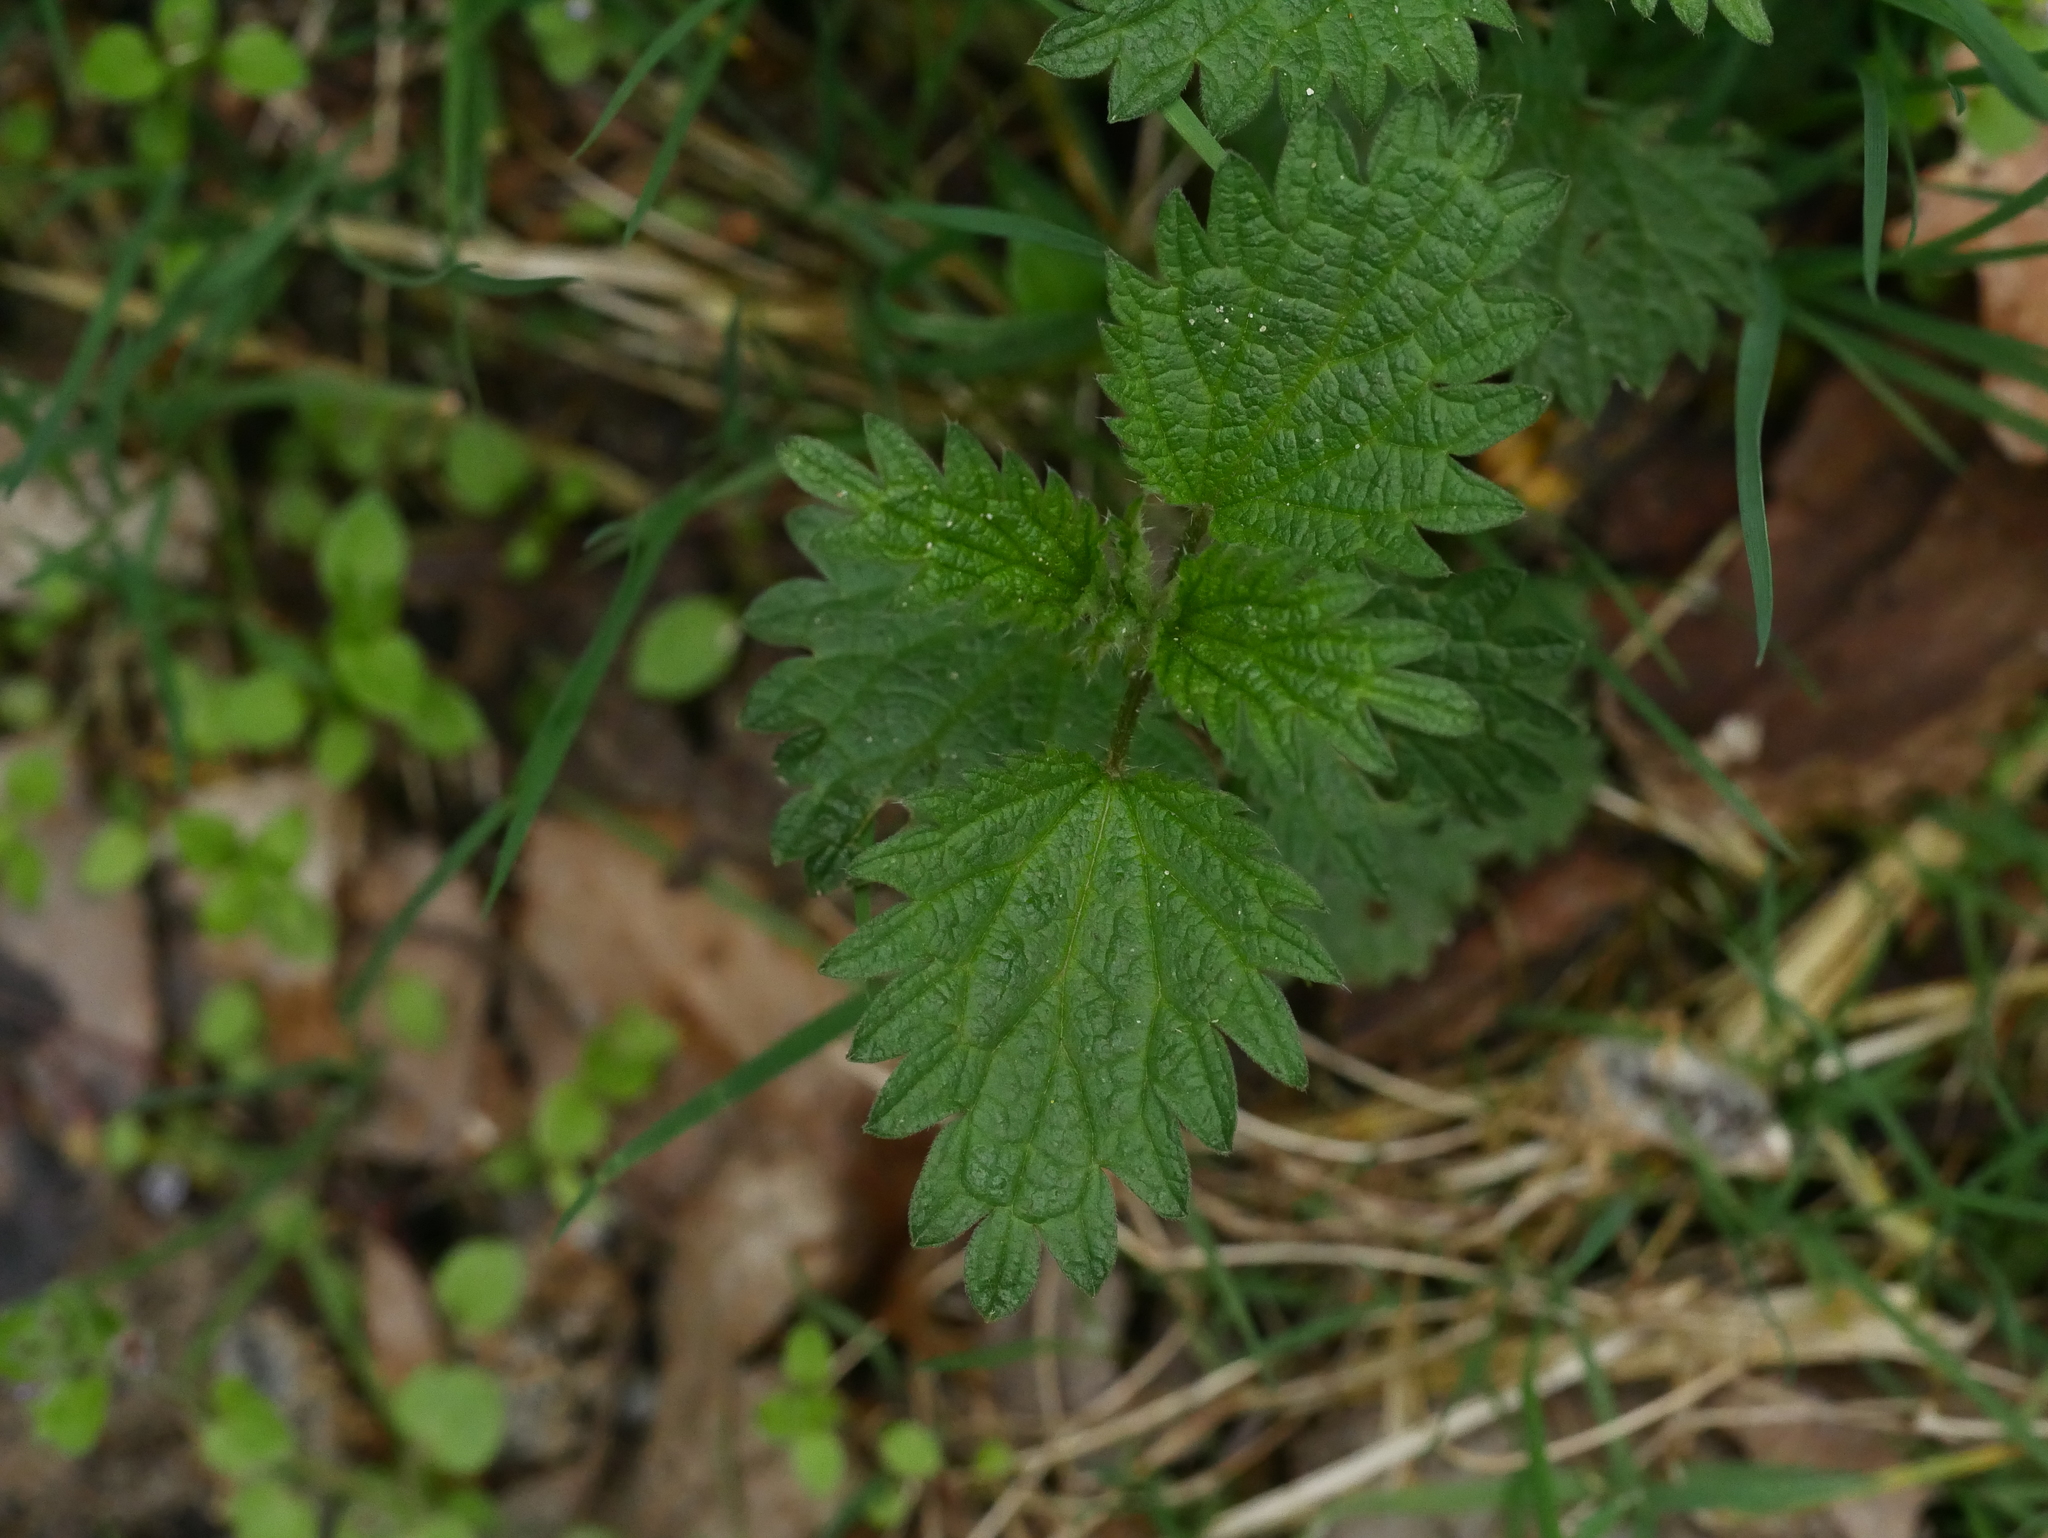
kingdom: Plantae
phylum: Tracheophyta
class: Magnoliopsida
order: Rosales
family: Urticaceae
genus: Urtica
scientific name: Urtica dioica
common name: Common nettle
